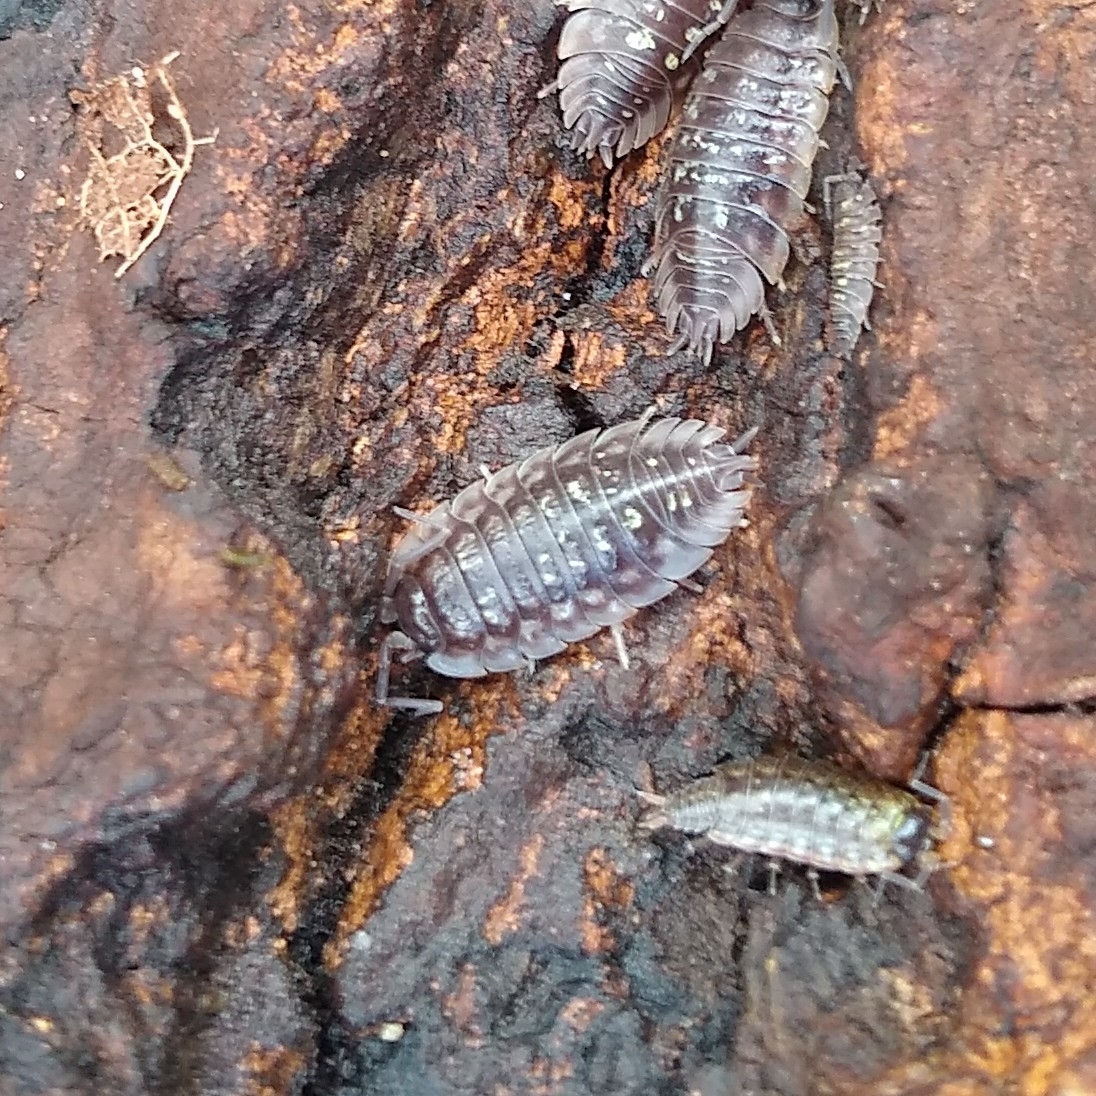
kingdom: Animalia
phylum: Arthropoda
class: Malacostraca
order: Isopoda
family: Oniscidae
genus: Oniscus
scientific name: Oniscus asellus
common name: Common shiny woodlouse
